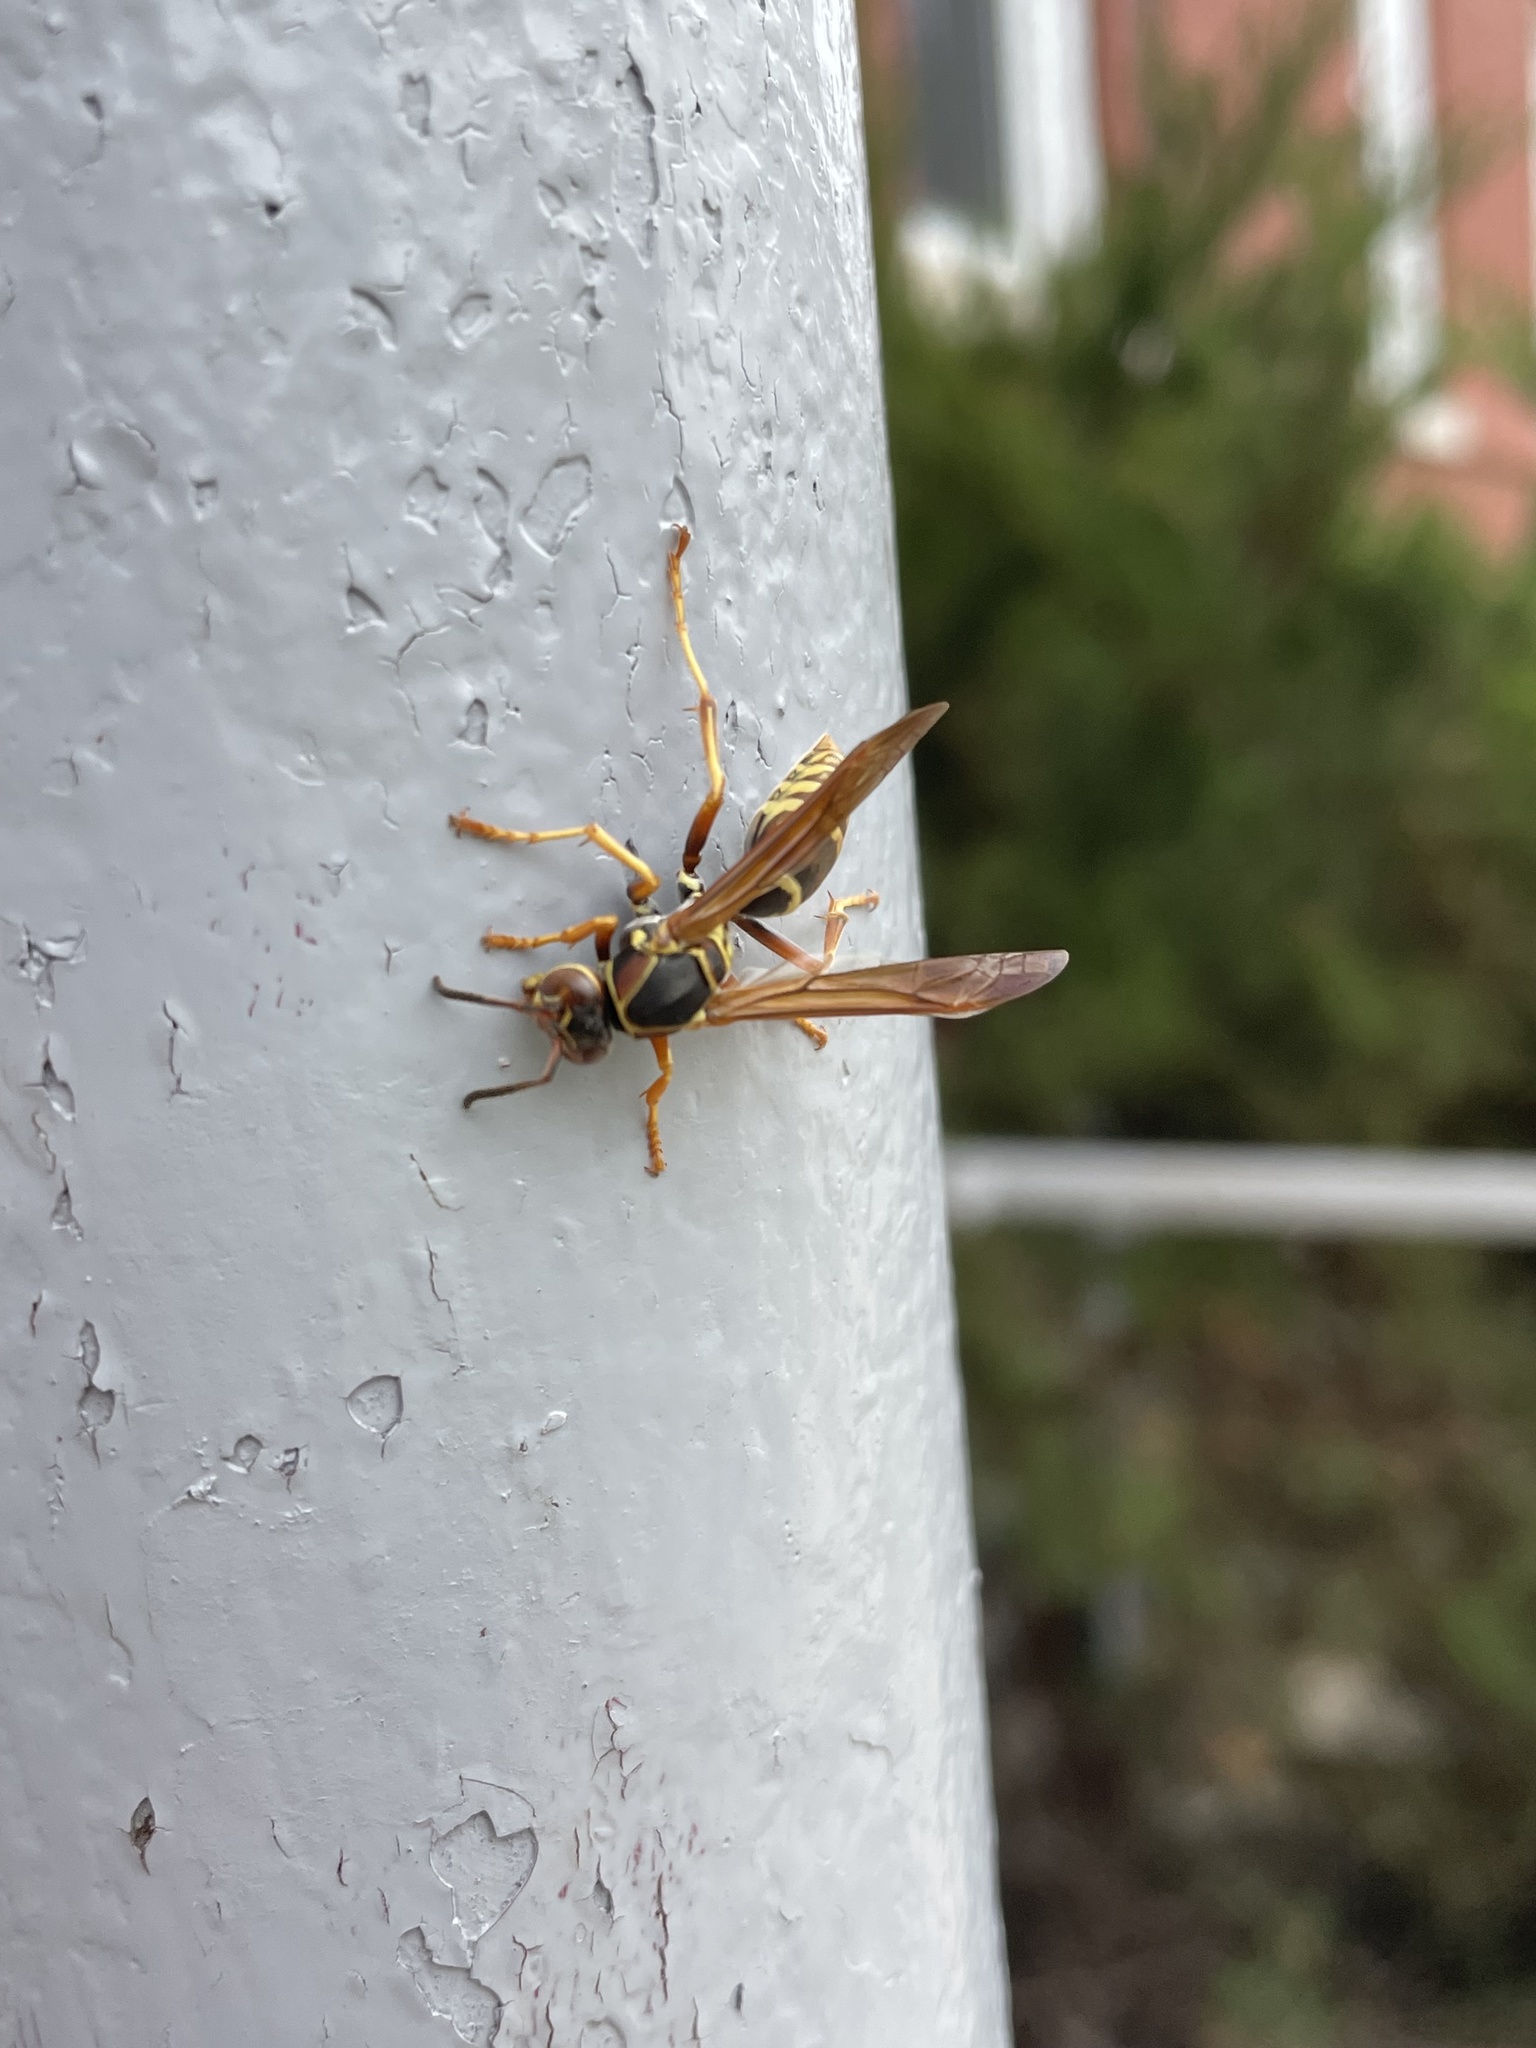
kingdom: Animalia
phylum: Arthropoda
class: Insecta
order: Hymenoptera
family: Eumenidae
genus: Polistes
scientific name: Polistes fuscatus
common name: Dark paper wasp
